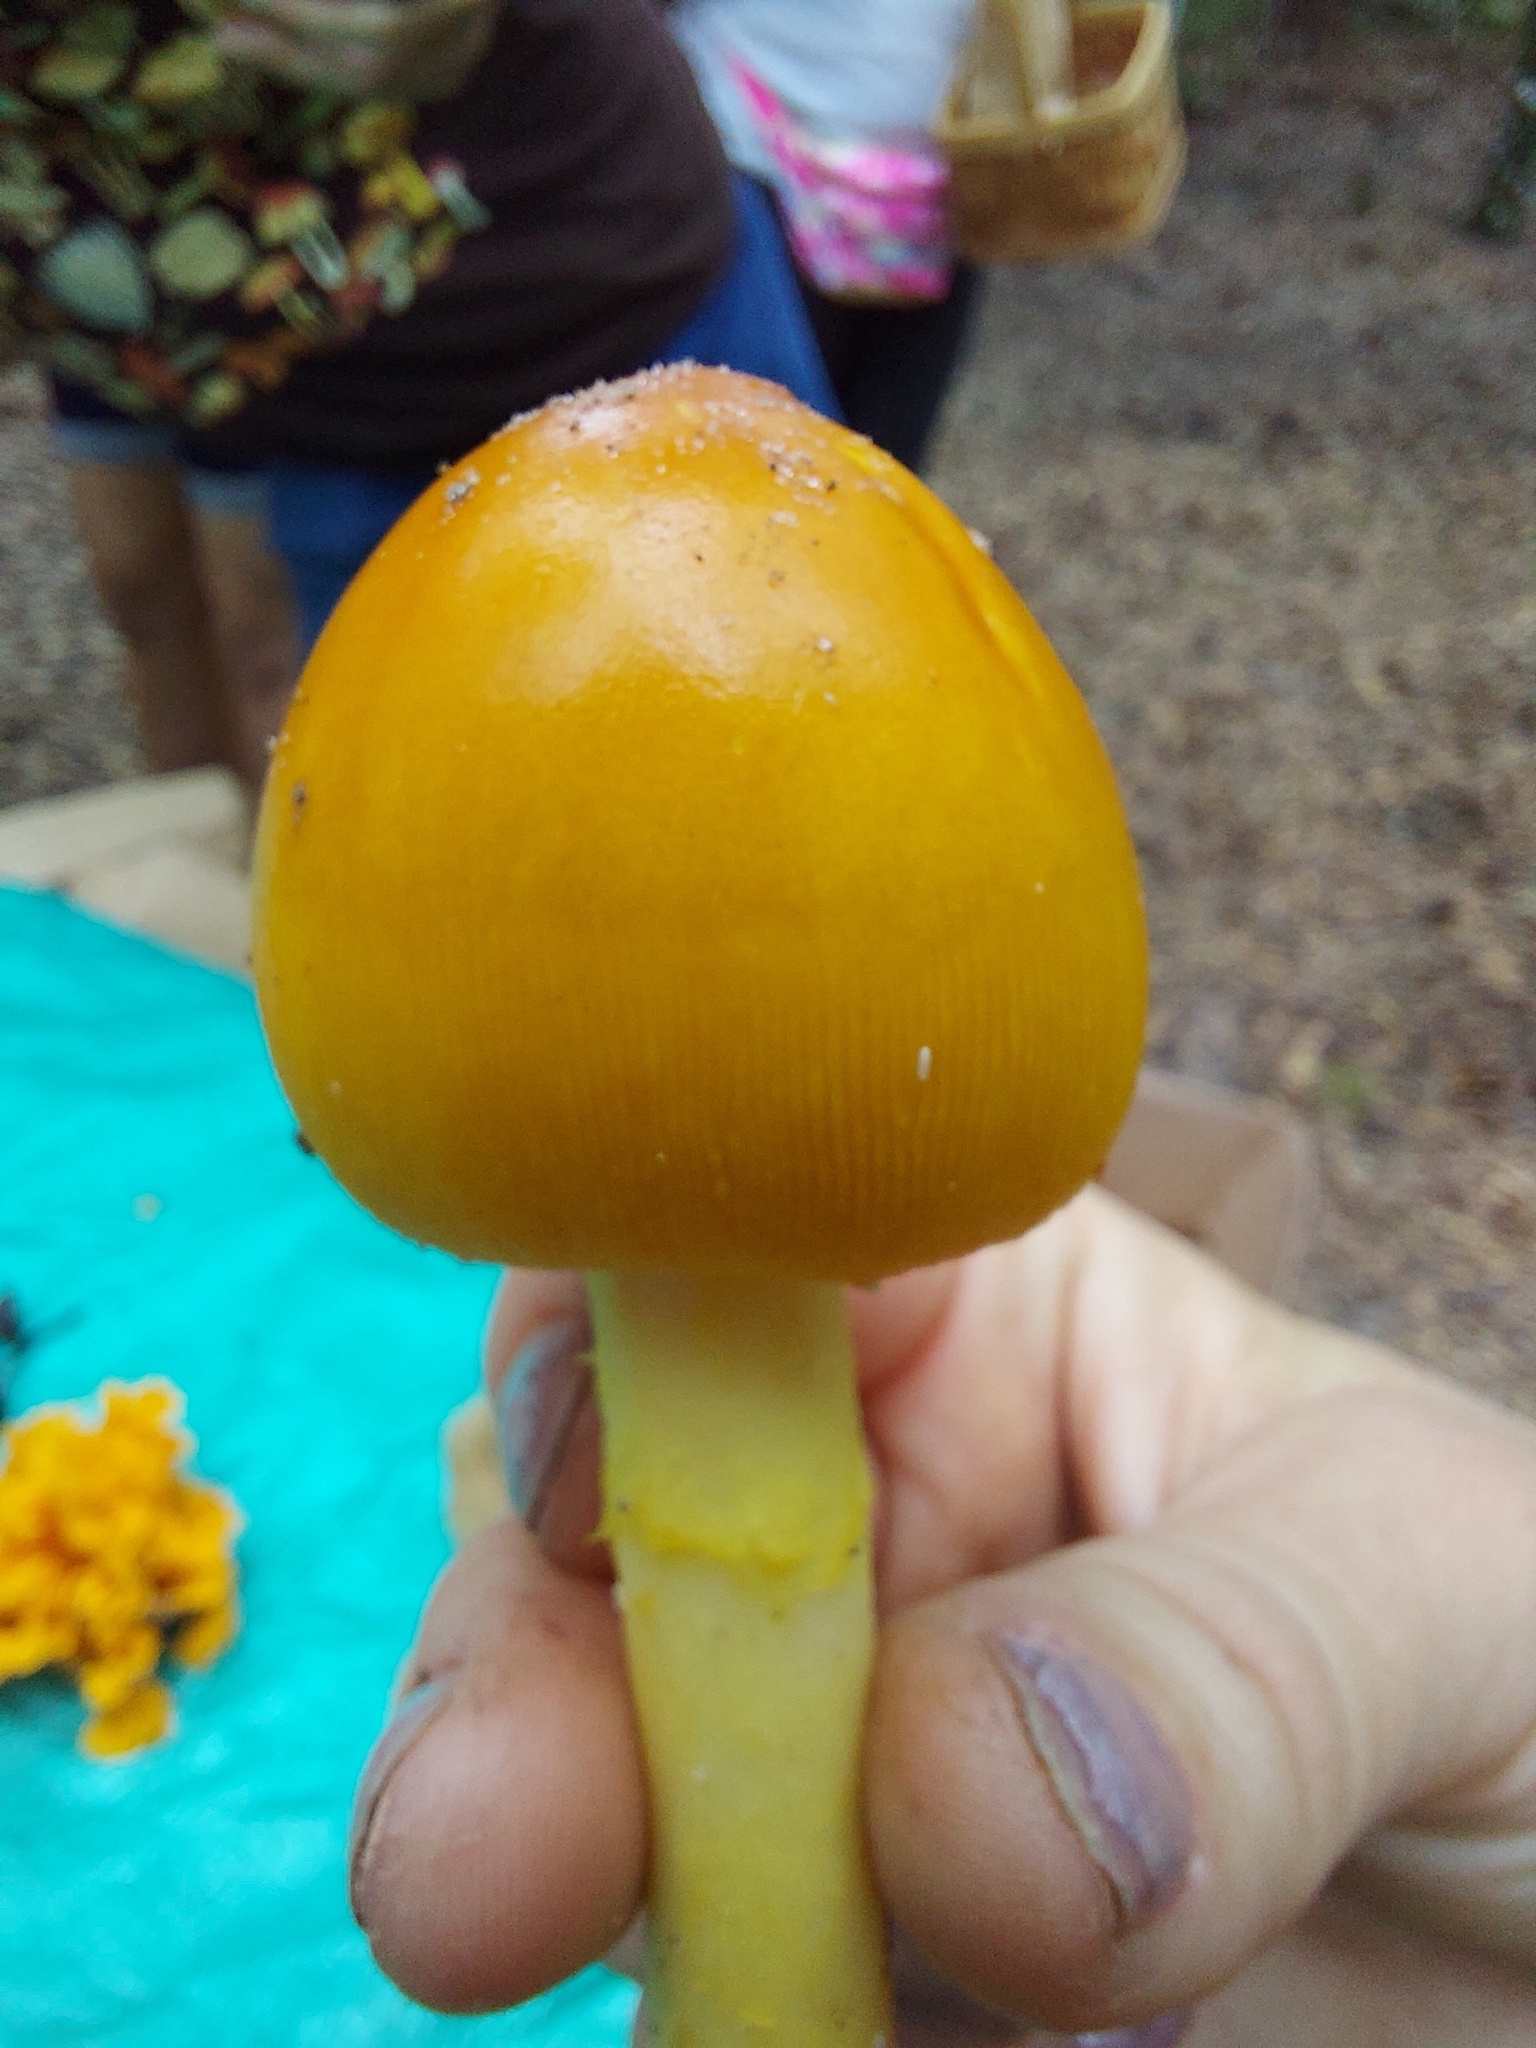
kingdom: Fungi
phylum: Basidiomycota
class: Agaricomycetes
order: Agaricales
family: Amanitaceae
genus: Amanita
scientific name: Amanita
